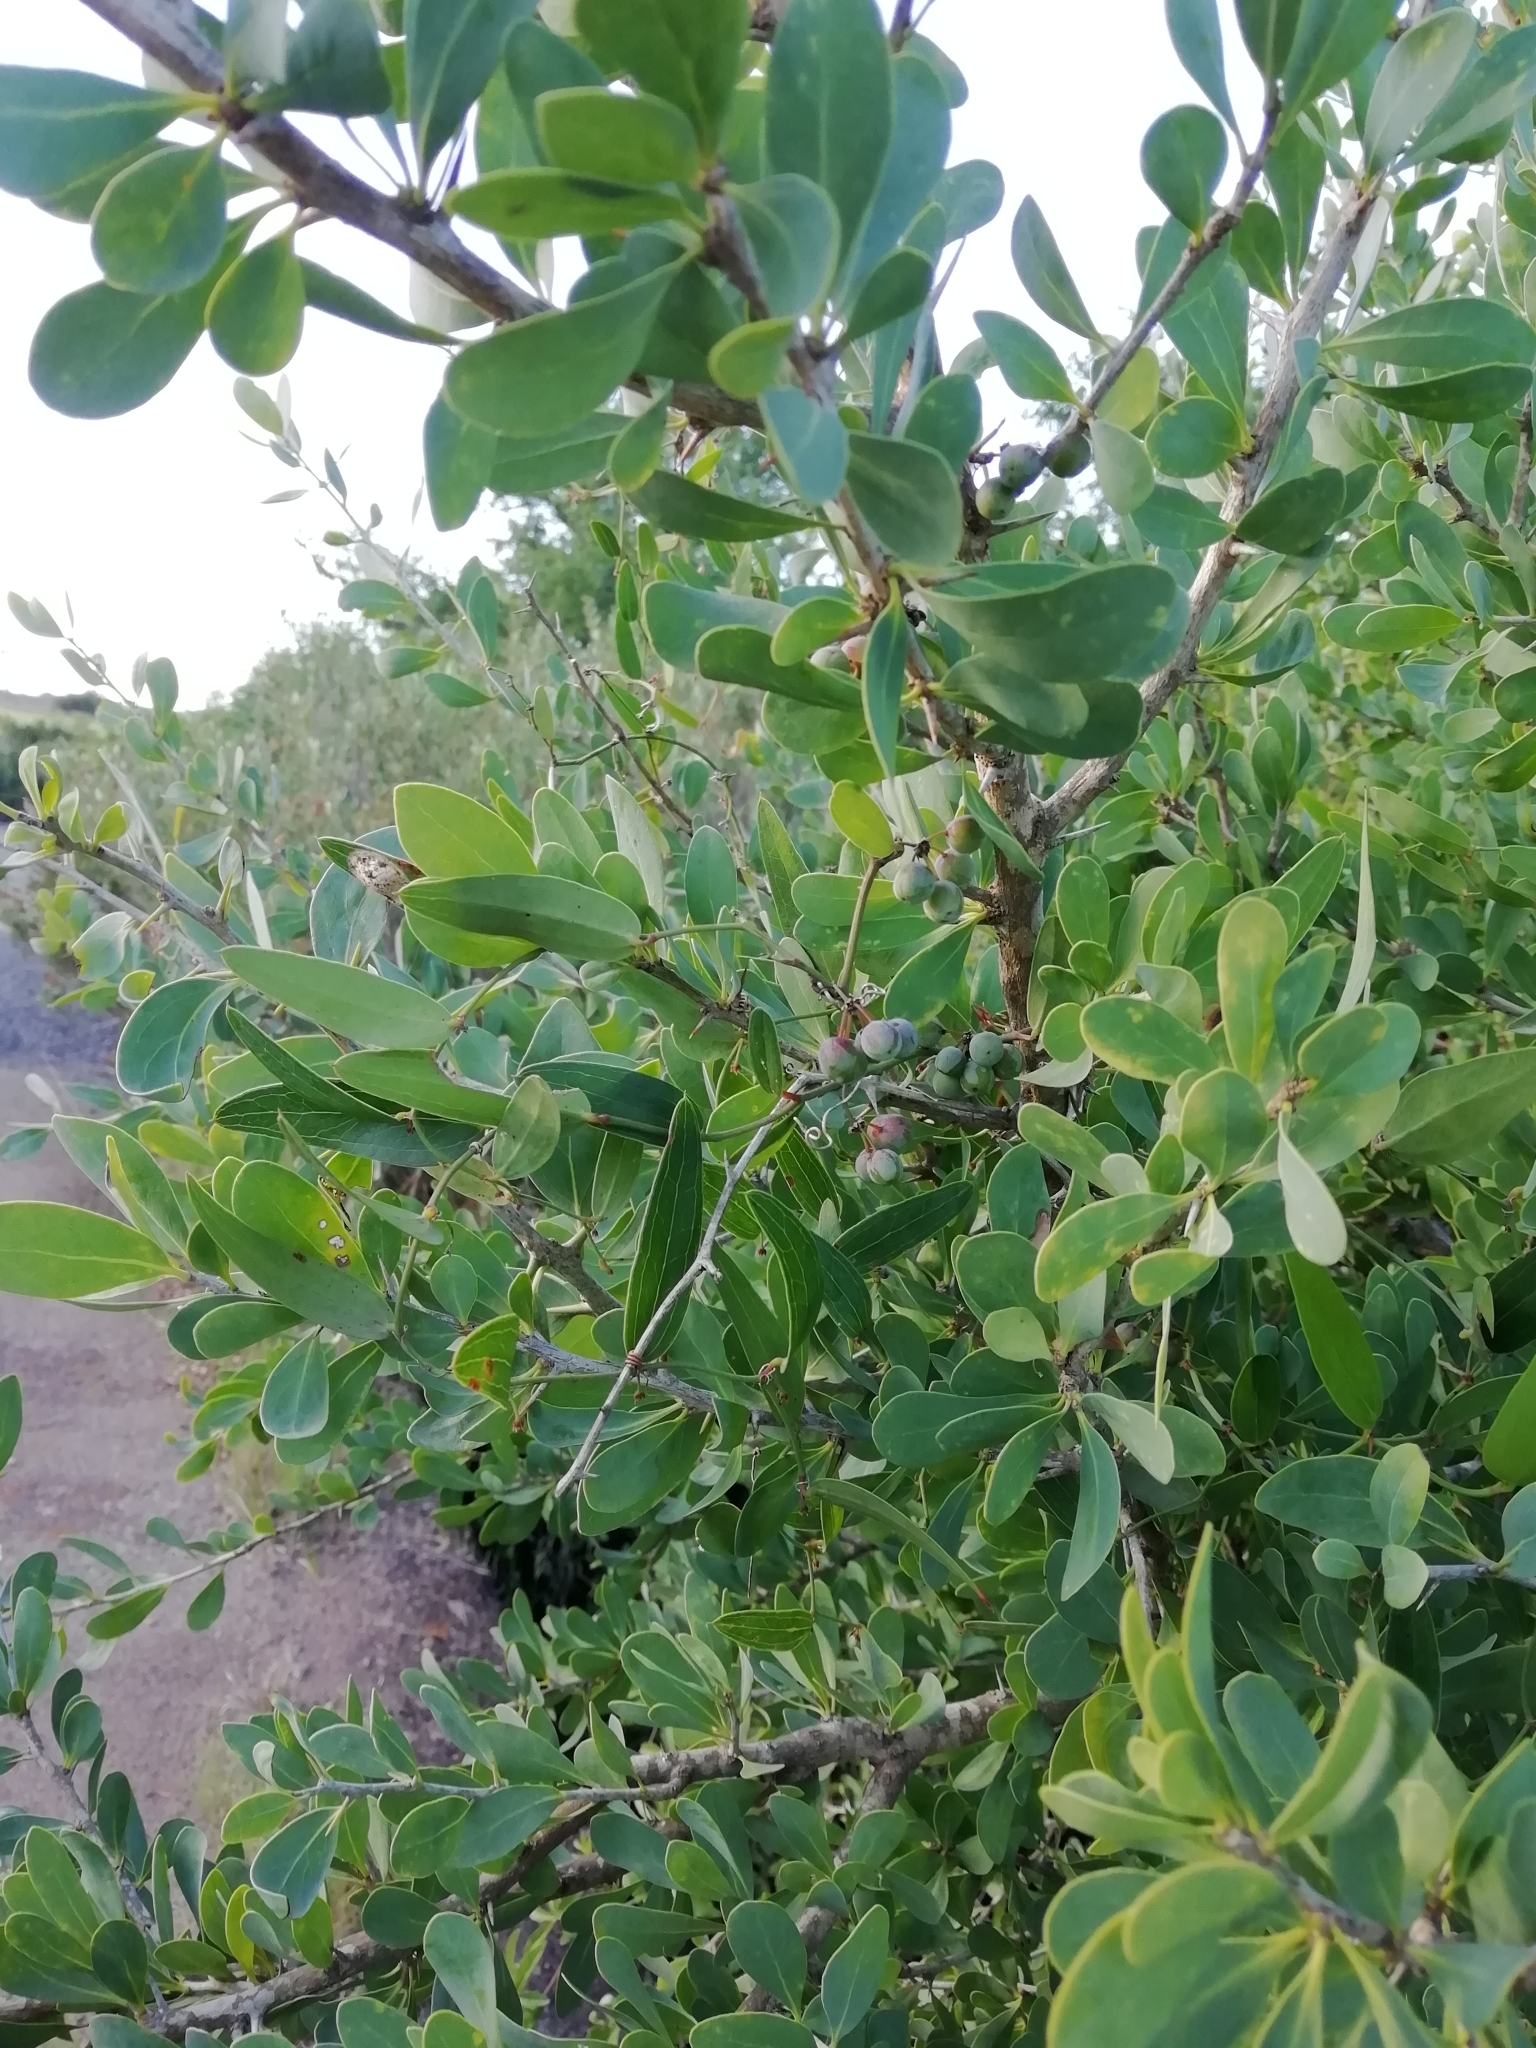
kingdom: Plantae
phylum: Tracheophyta
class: Magnoliopsida
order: Santalales
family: Cervantesiaceae
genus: Acanthosyris
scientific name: Acanthosyris spinescens
